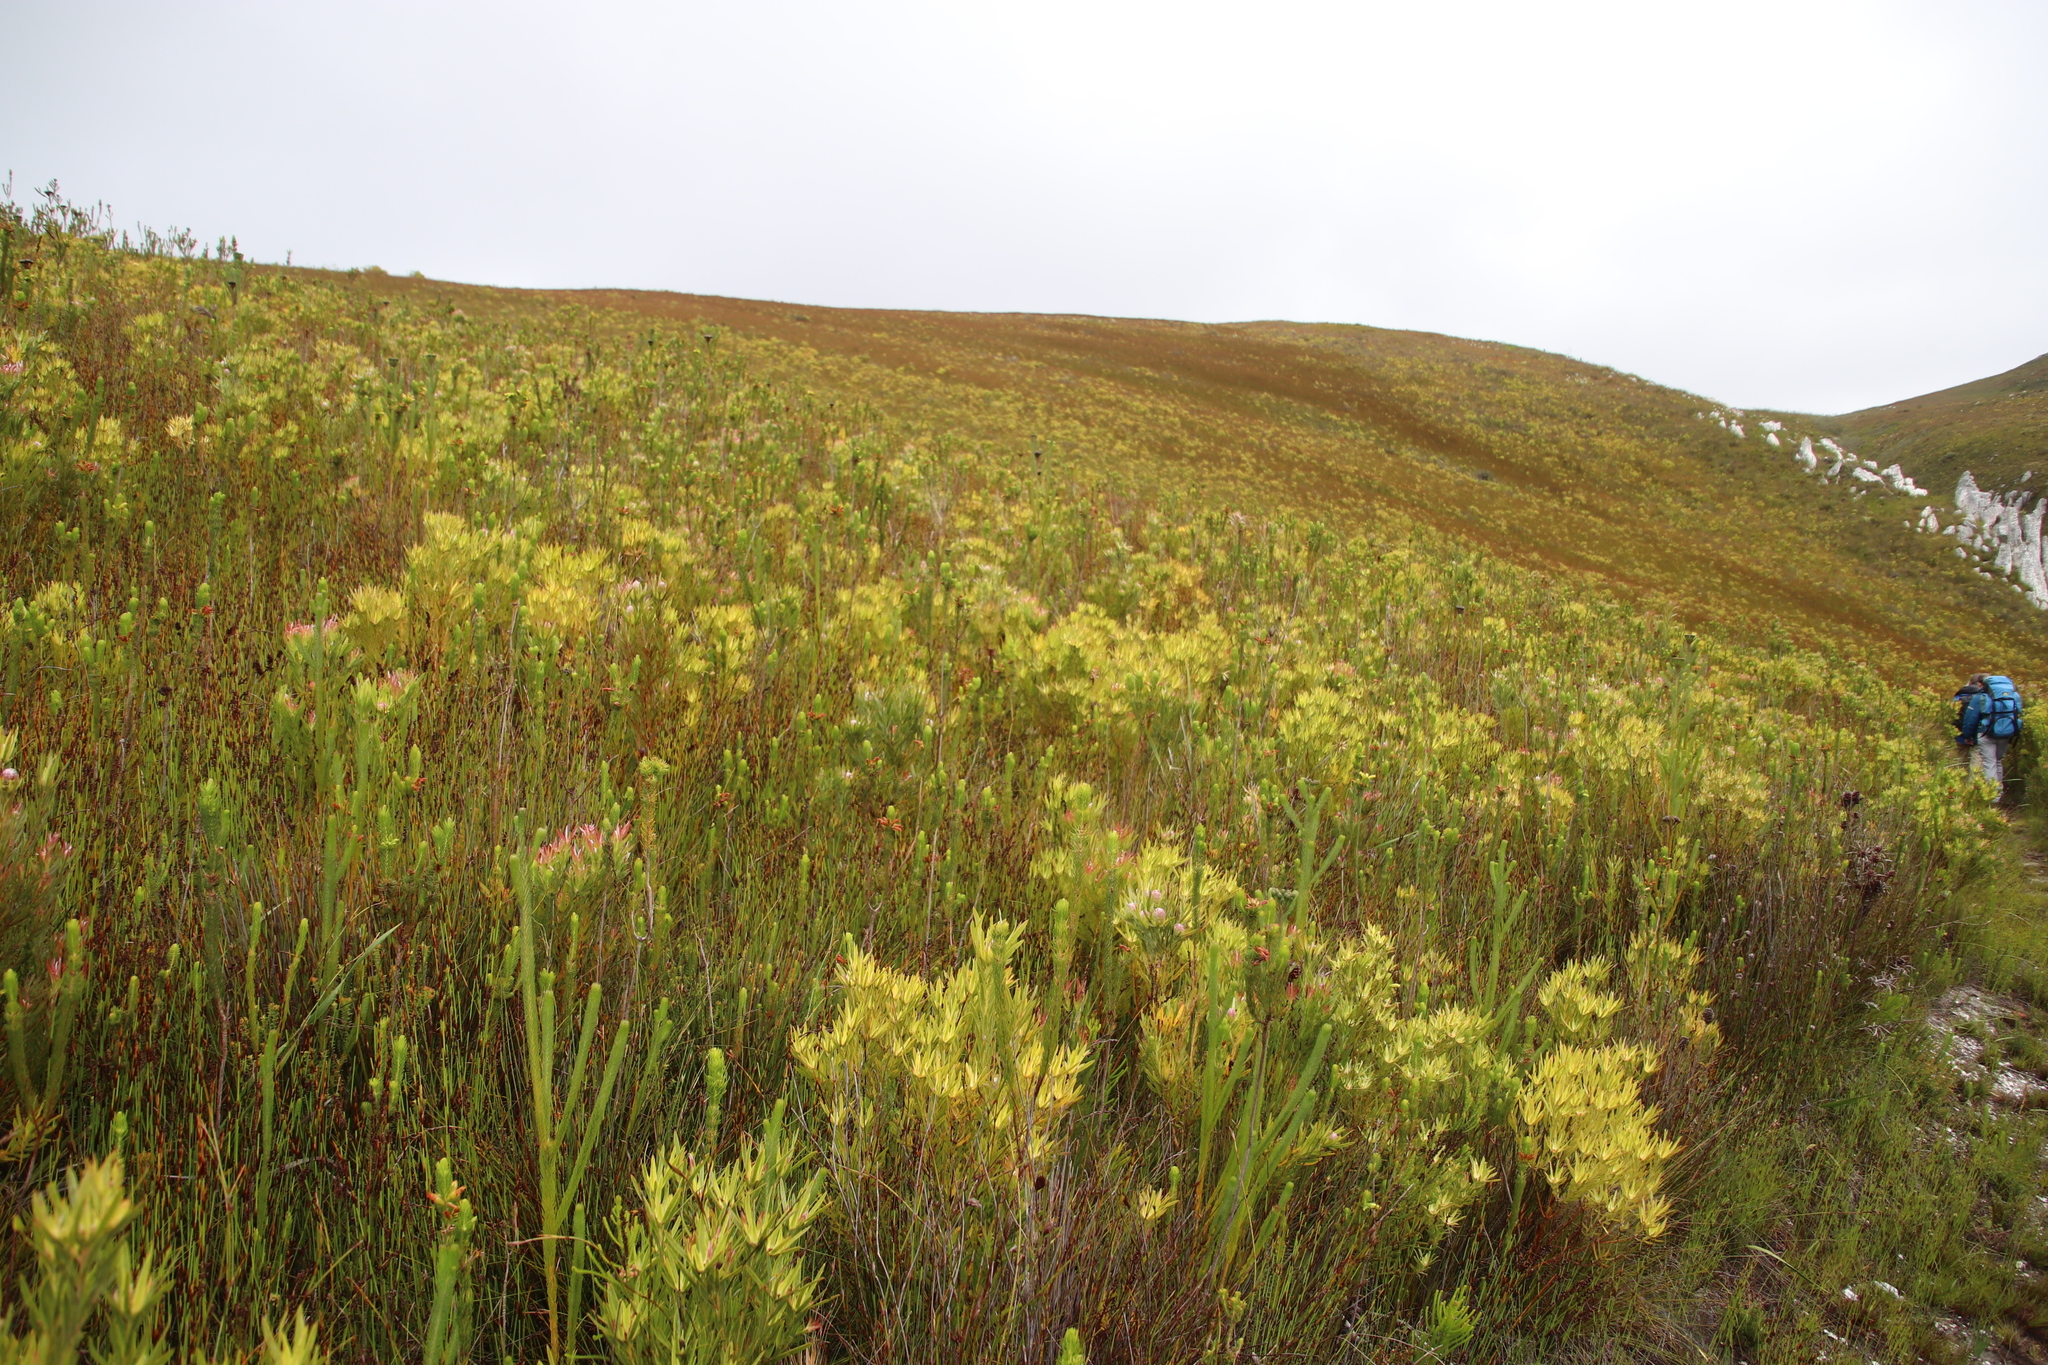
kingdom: Plantae
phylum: Tracheophyta
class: Magnoliopsida
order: Proteales
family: Proteaceae
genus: Leucadendron
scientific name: Leucadendron xanthoconus
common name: Sickle-leaf conebush
